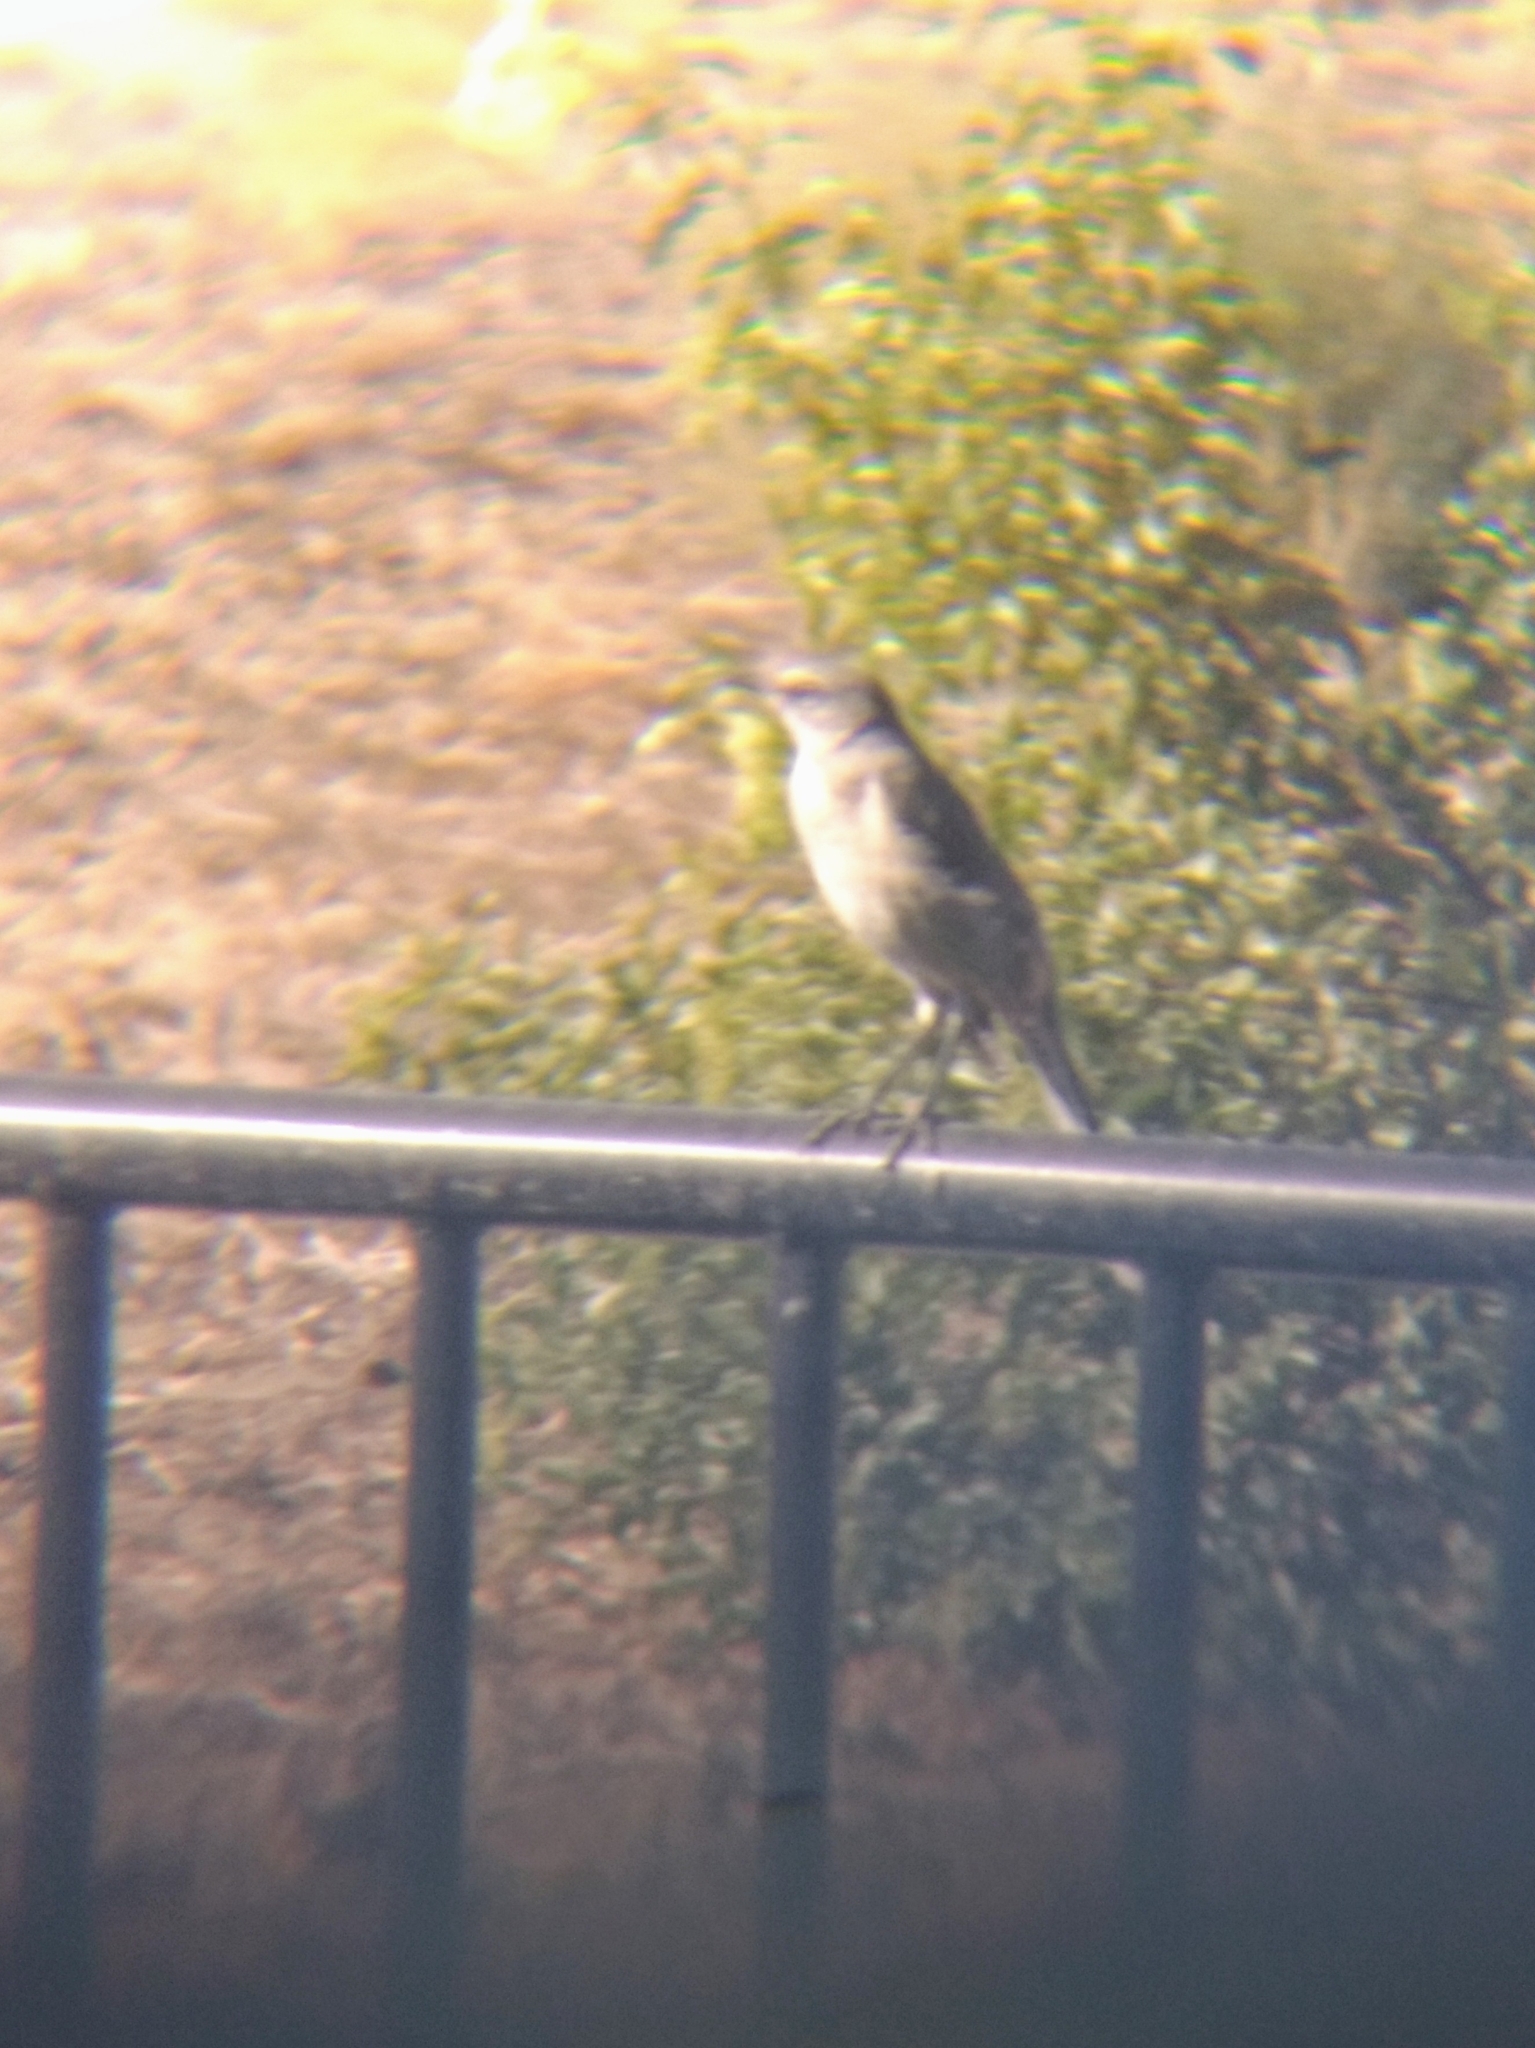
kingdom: Animalia
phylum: Chordata
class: Aves
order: Passeriformes
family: Mimidae
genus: Mimus
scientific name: Mimus polyglottos
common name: Northern mockingbird
